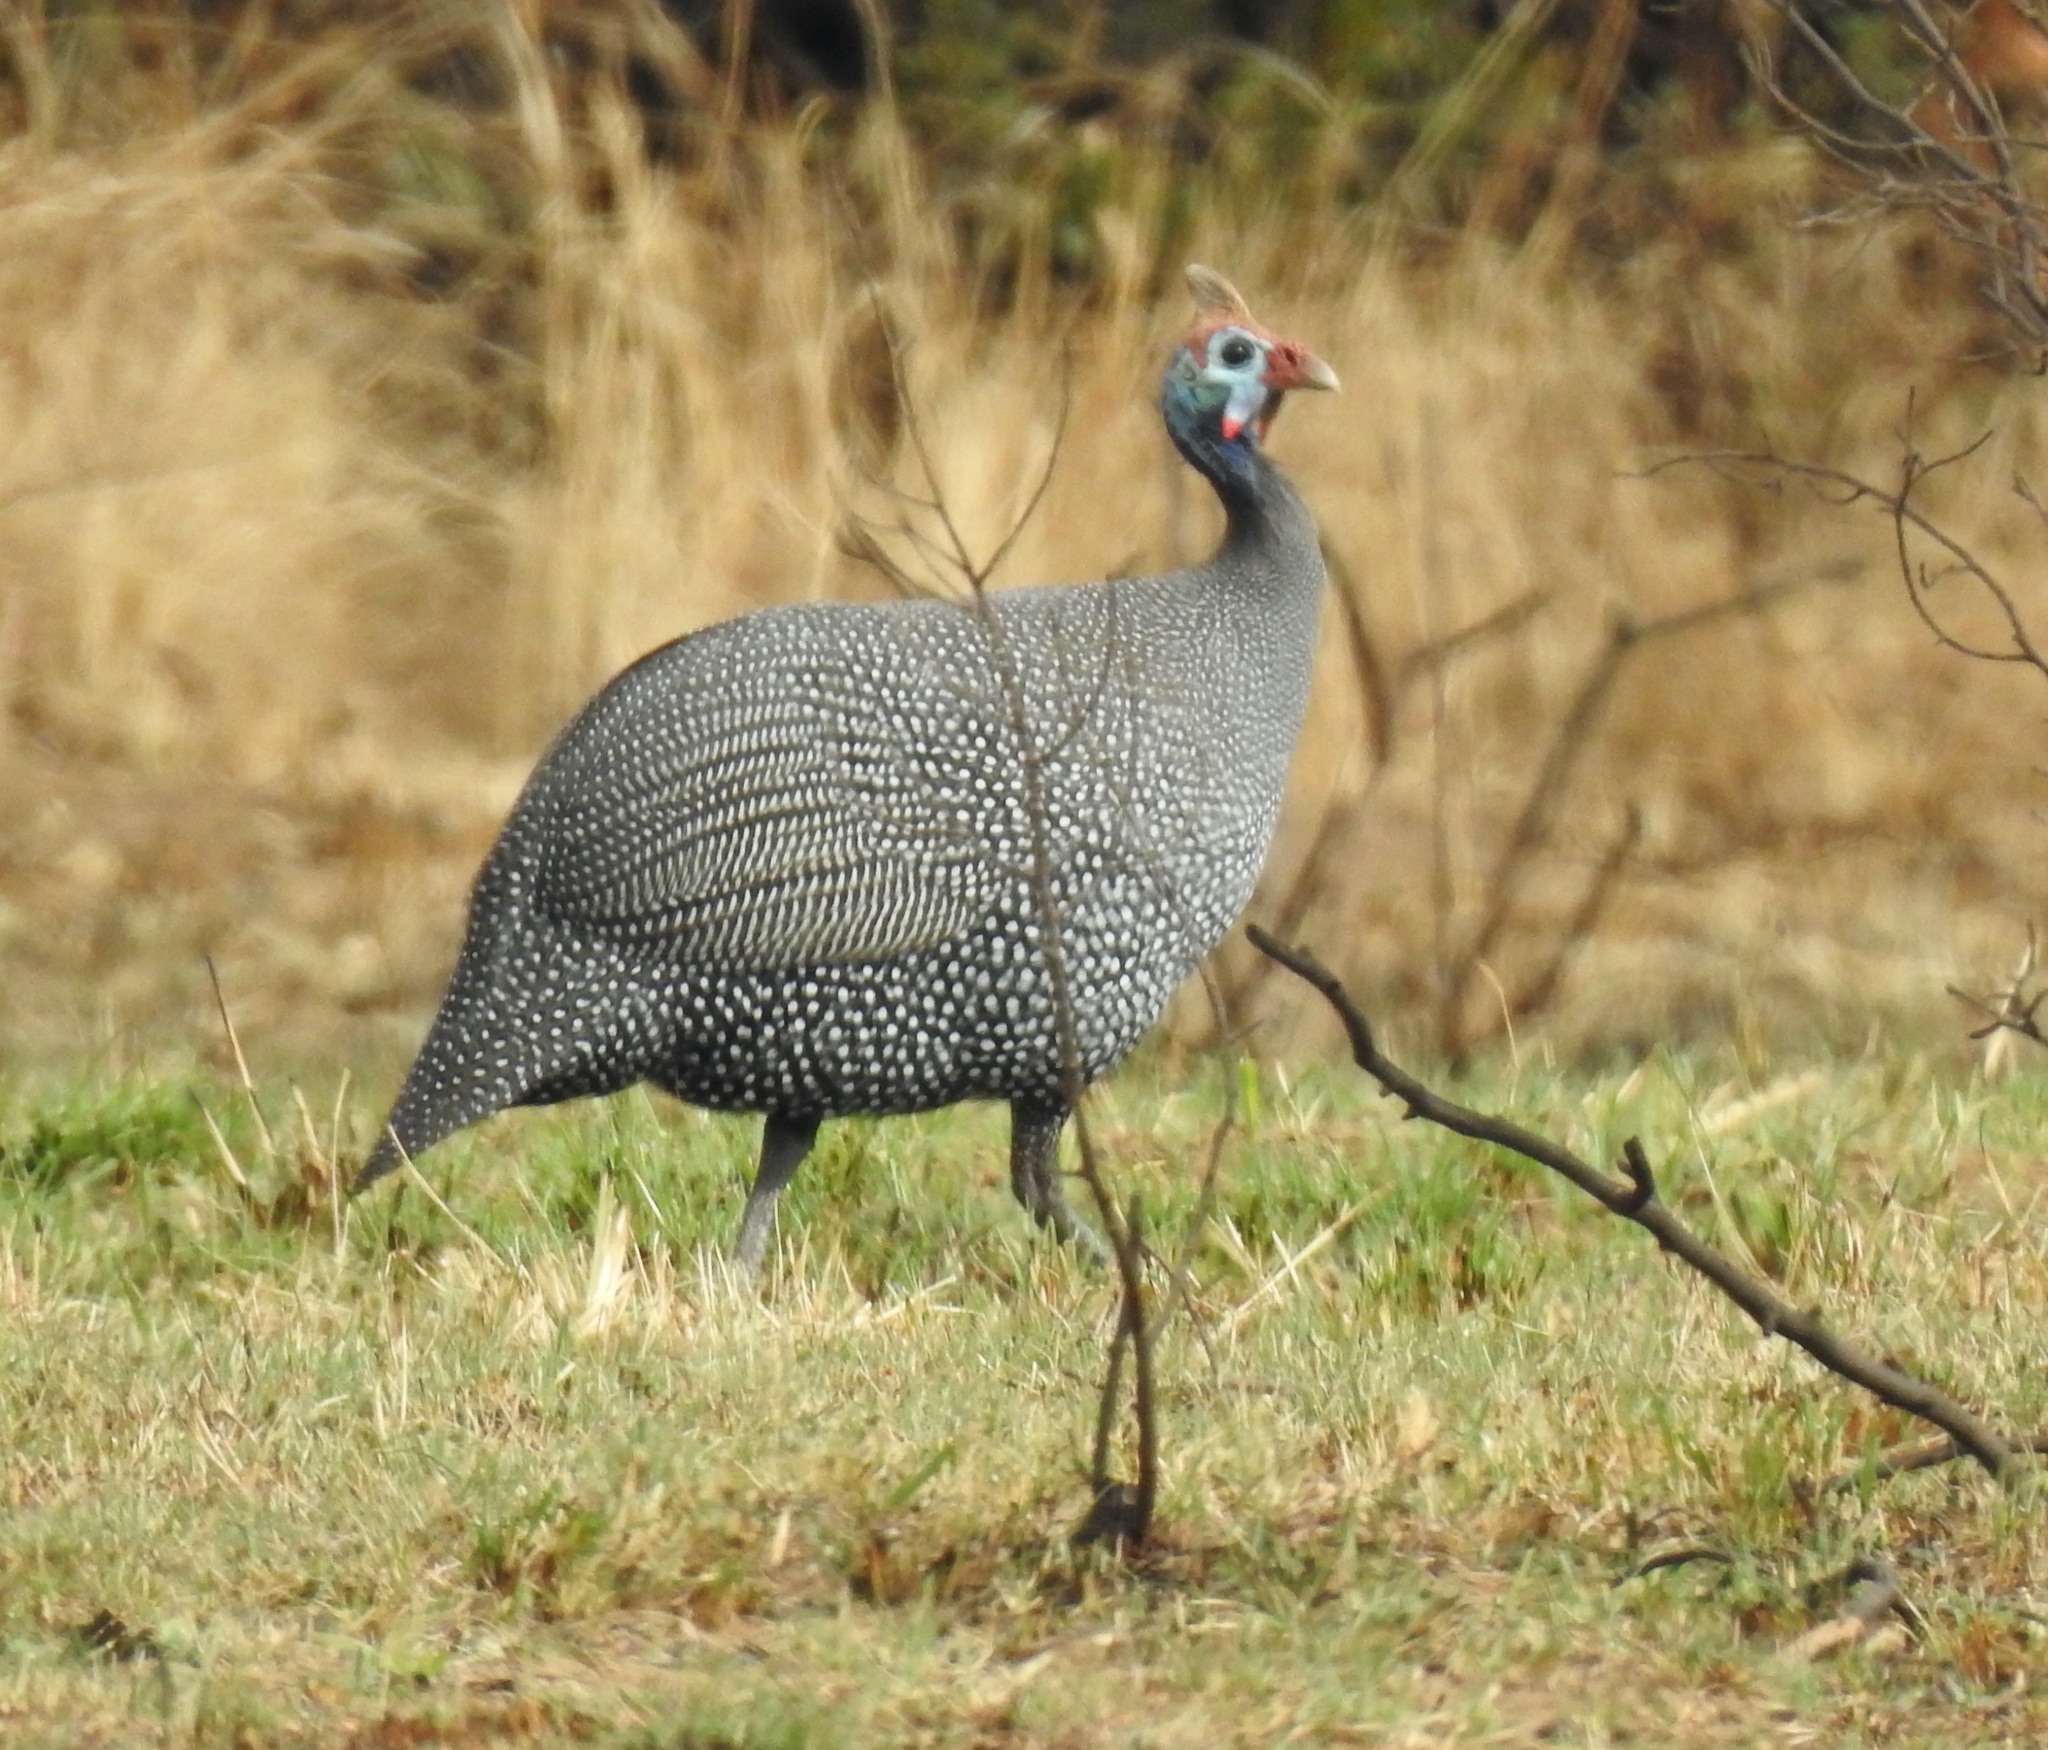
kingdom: Animalia
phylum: Chordata
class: Aves
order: Galliformes
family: Numididae
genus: Numida
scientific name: Numida meleagris
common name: Helmeted guineafowl
